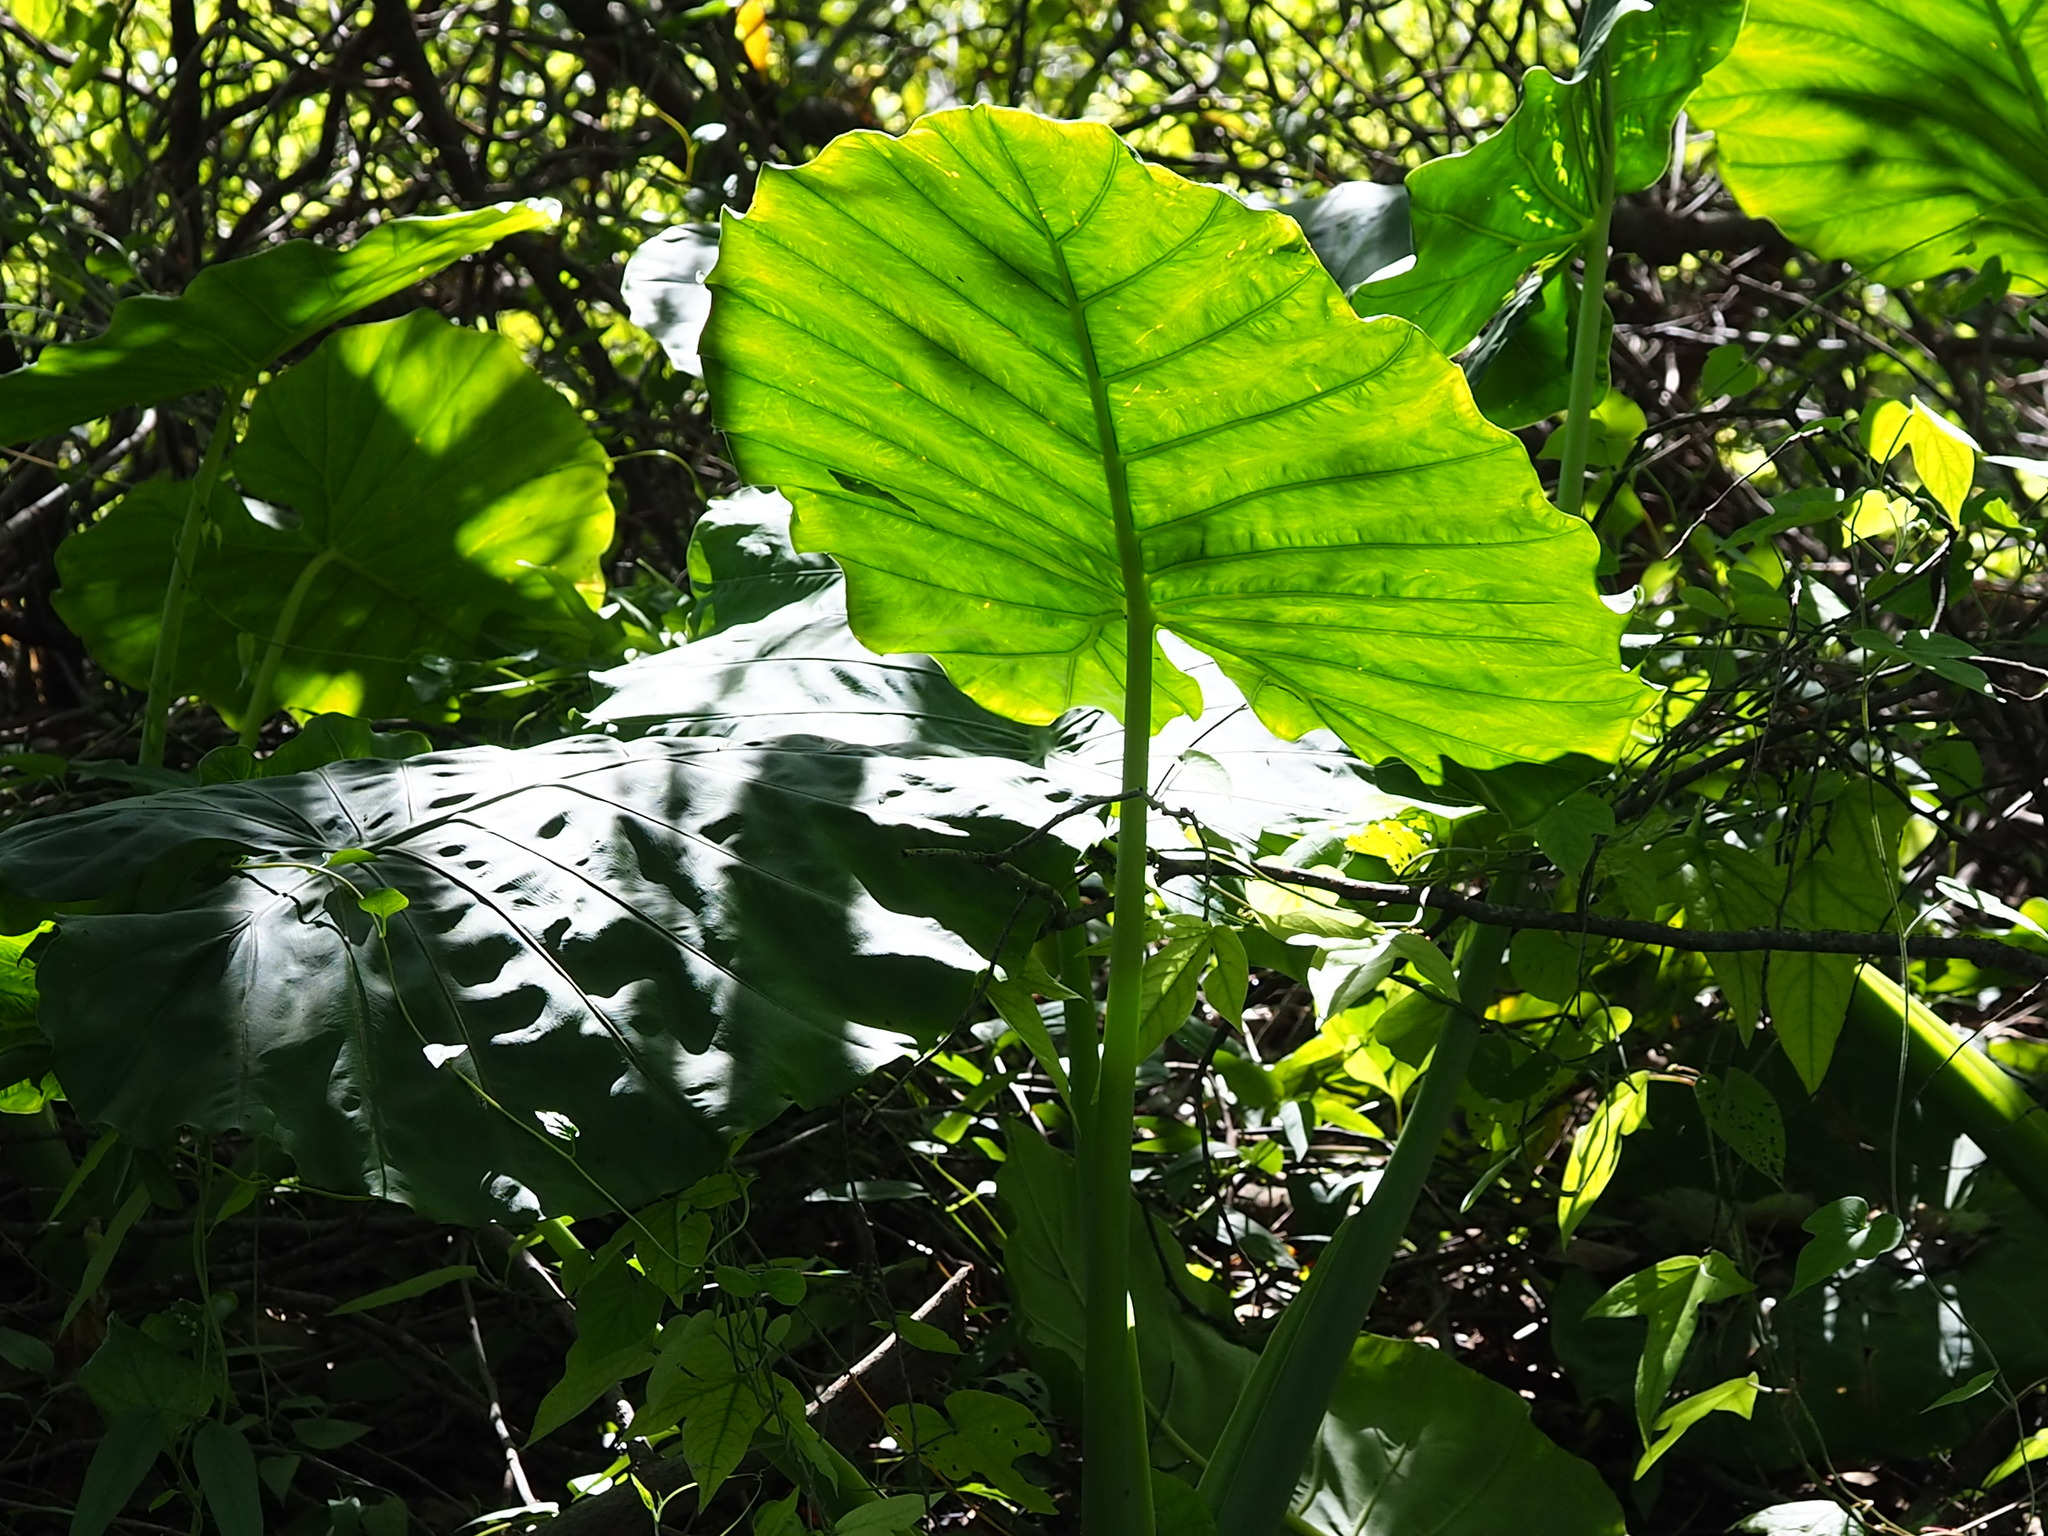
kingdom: Plantae
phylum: Tracheophyta
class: Liliopsida
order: Alismatales
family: Araceae
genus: Alocasia
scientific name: Alocasia odora
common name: Asian taro
